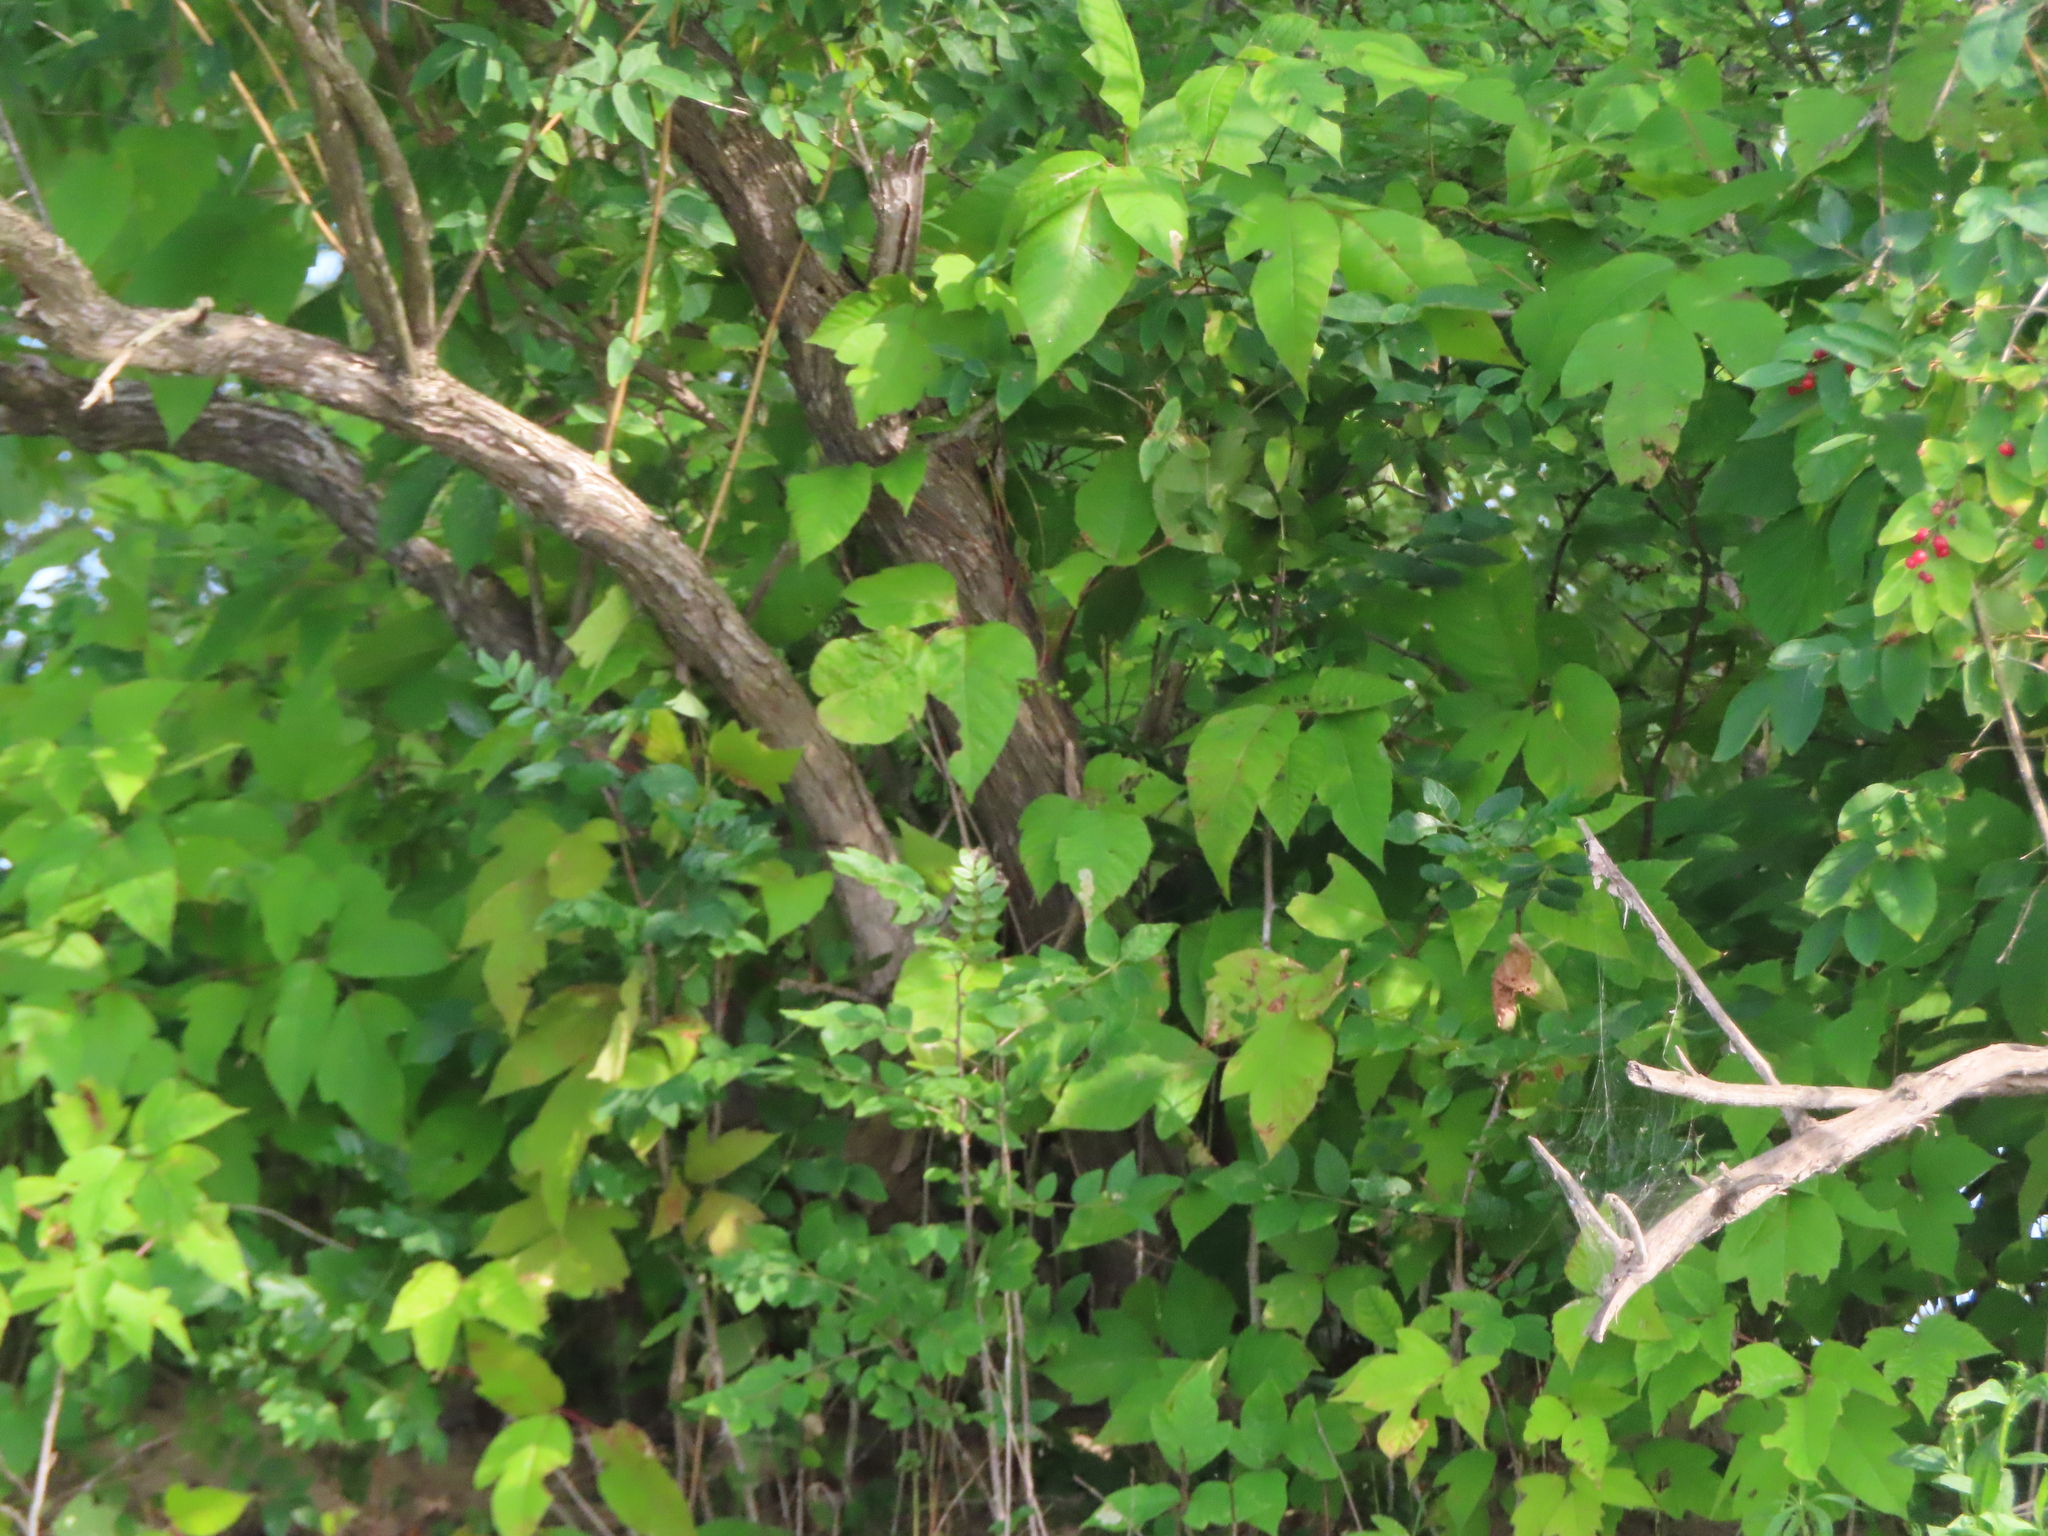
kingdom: Plantae
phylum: Tracheophyta
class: Magnoliopsida
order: Sapindales
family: Anacardiaceae
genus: Toxicodendron
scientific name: Toxicodendron radicans
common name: Poison ivy
